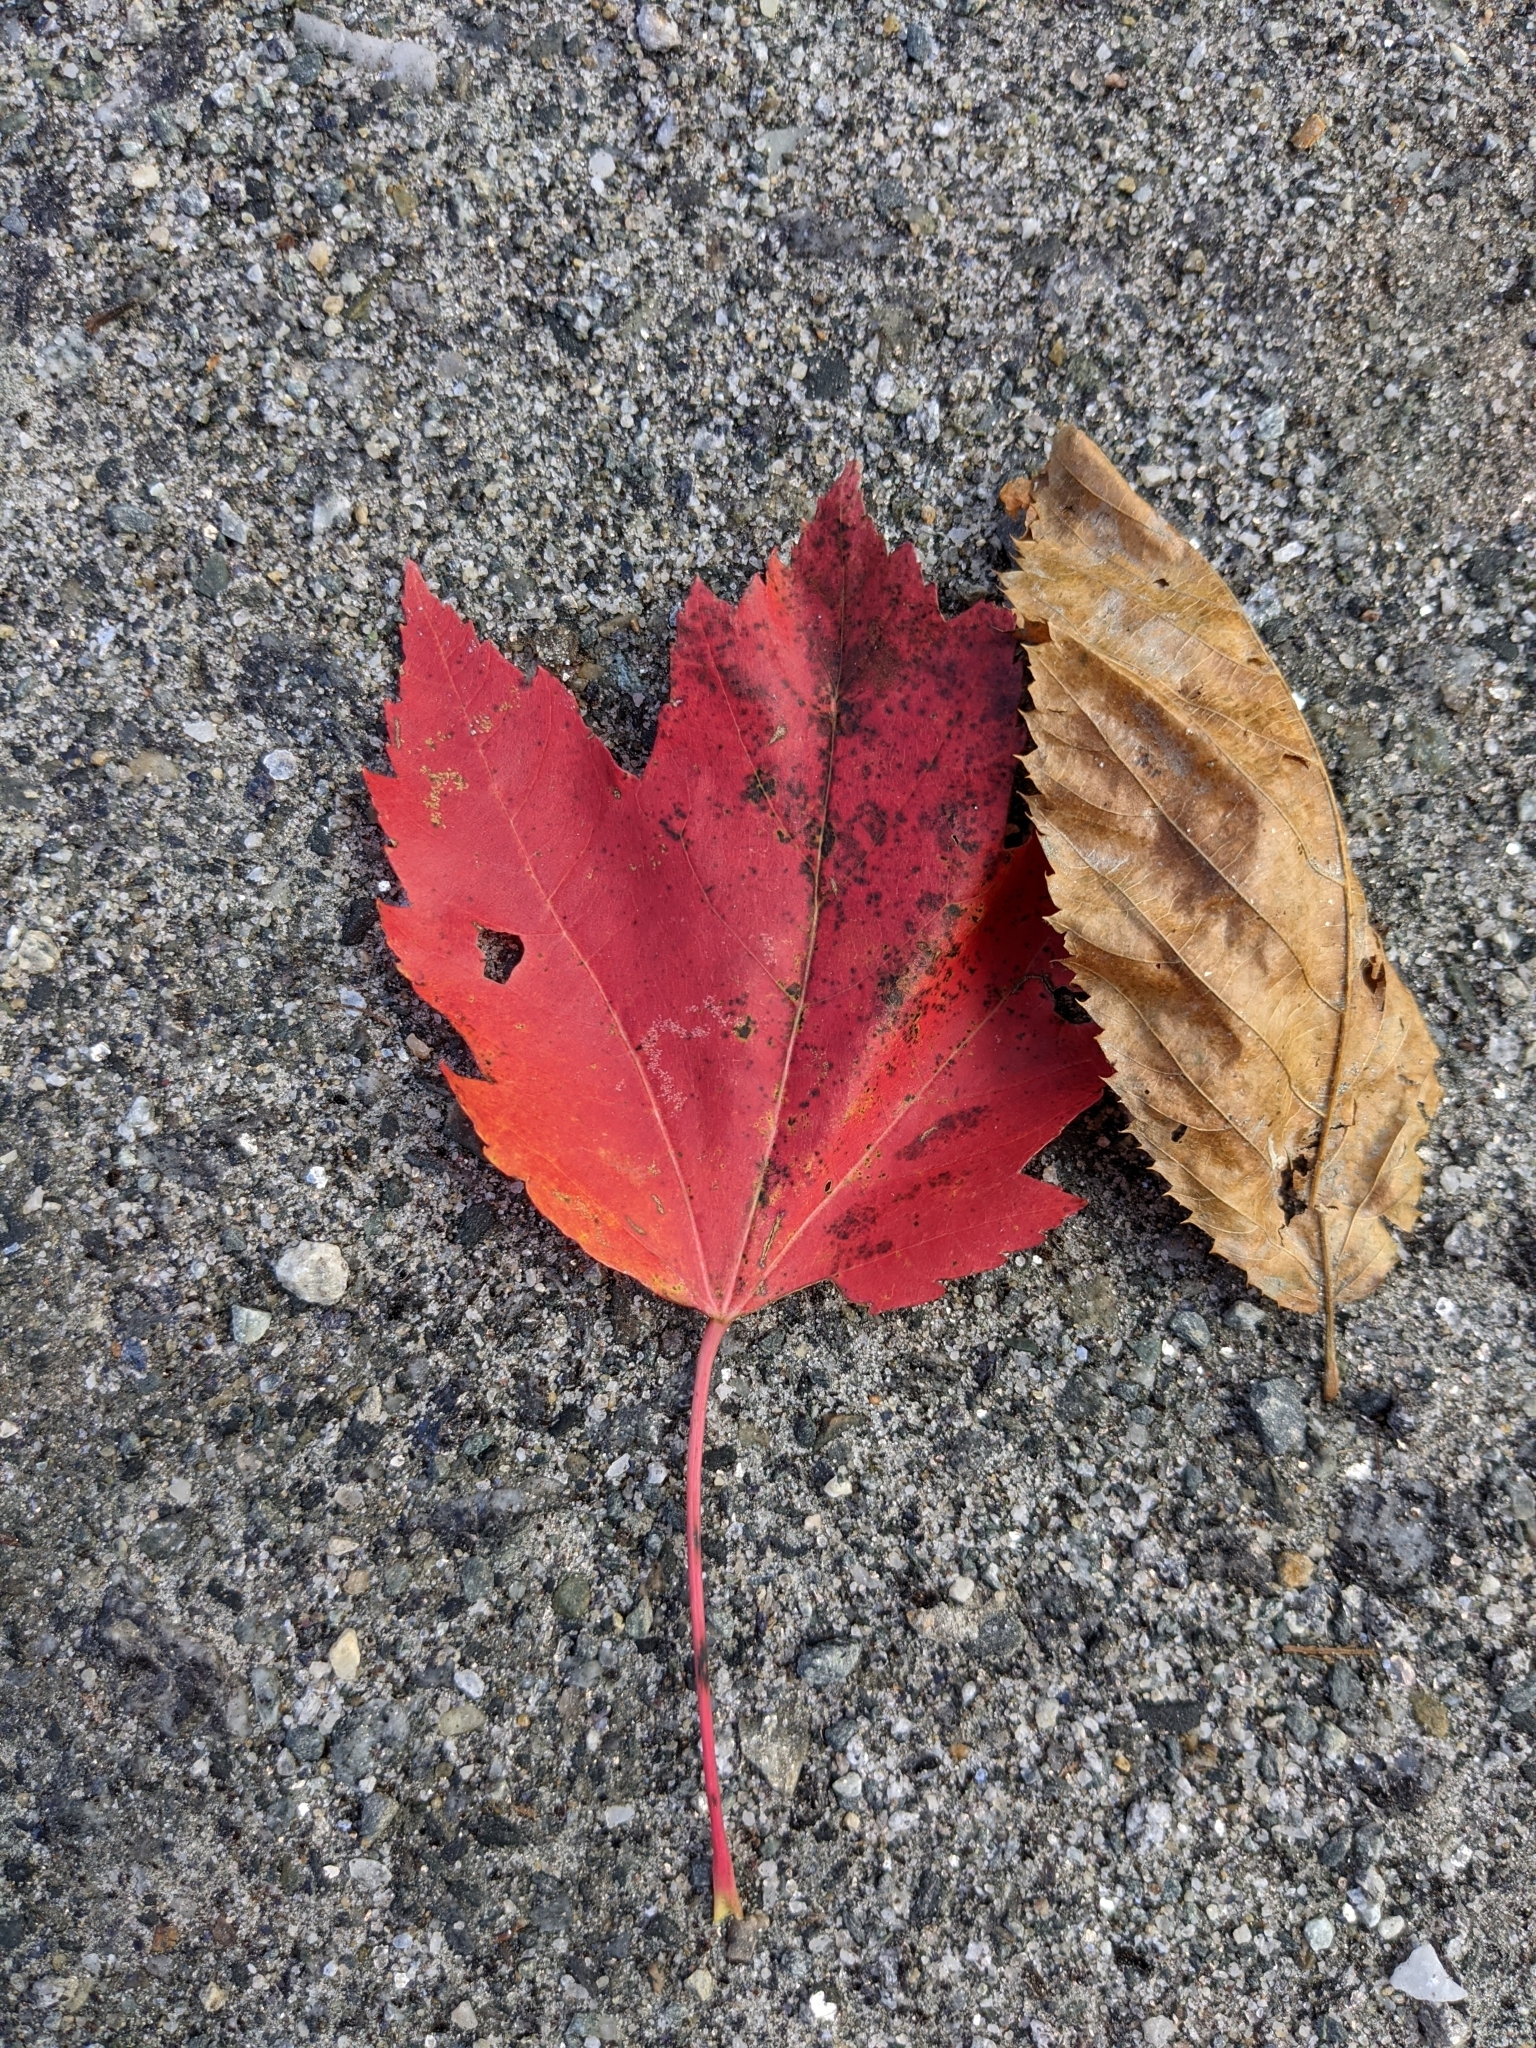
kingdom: Plantae
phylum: Tracheophyta
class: Magnoliopsida
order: Sapindales
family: Sapindaceae
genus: Acer
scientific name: Acer rubrum
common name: Red maple
